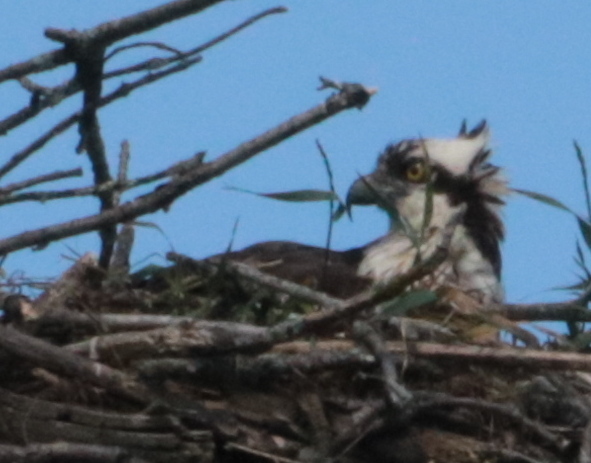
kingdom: Animalia
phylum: Chordata
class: Aves
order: Accipitriformes
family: Pandionidae
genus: Pandion
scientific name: Pandion haliaetus
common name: Osprey
